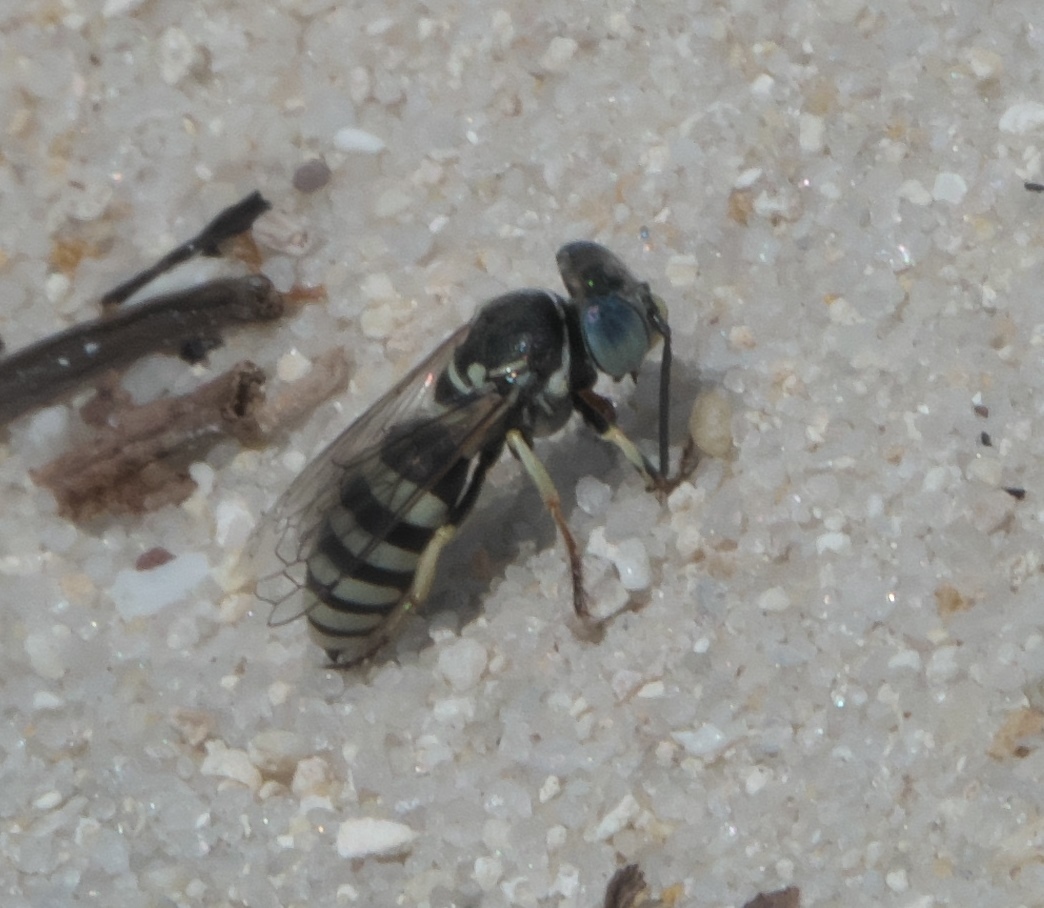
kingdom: Animalia
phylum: Arthropoda
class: Insecta
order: Hymenoptera
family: Crabronidae
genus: Microbembex
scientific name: Microbembex monodonta
